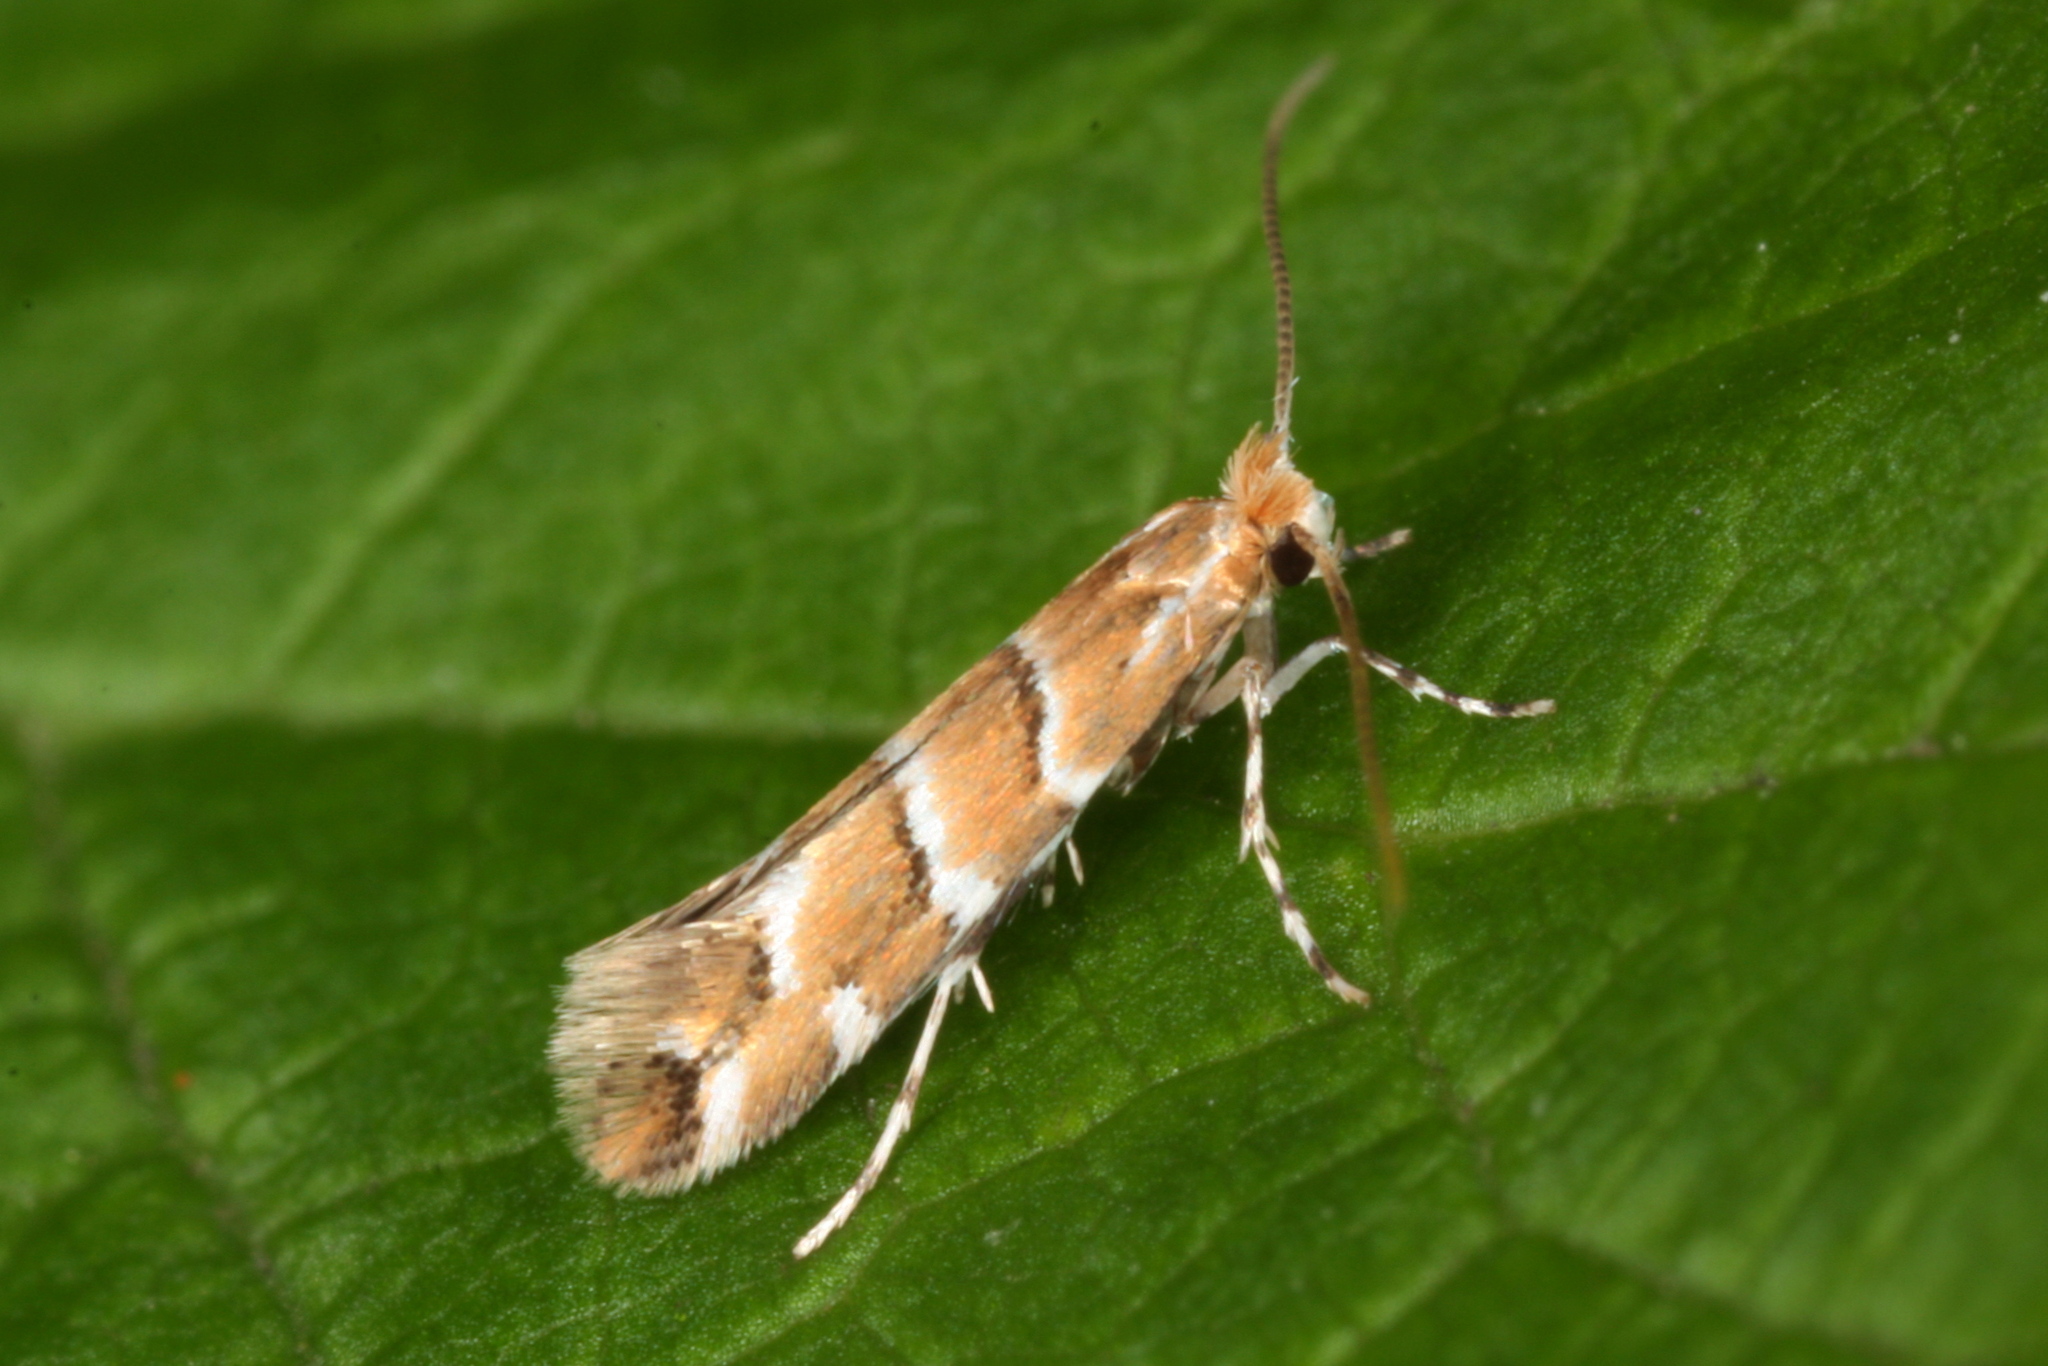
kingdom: Animalia
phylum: Arthropoda
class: Insecta
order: Lepidoptera
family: Gracillariidae
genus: Cameraria
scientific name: Cameraria ohridella
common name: Horse-chestnut leaf-miner
